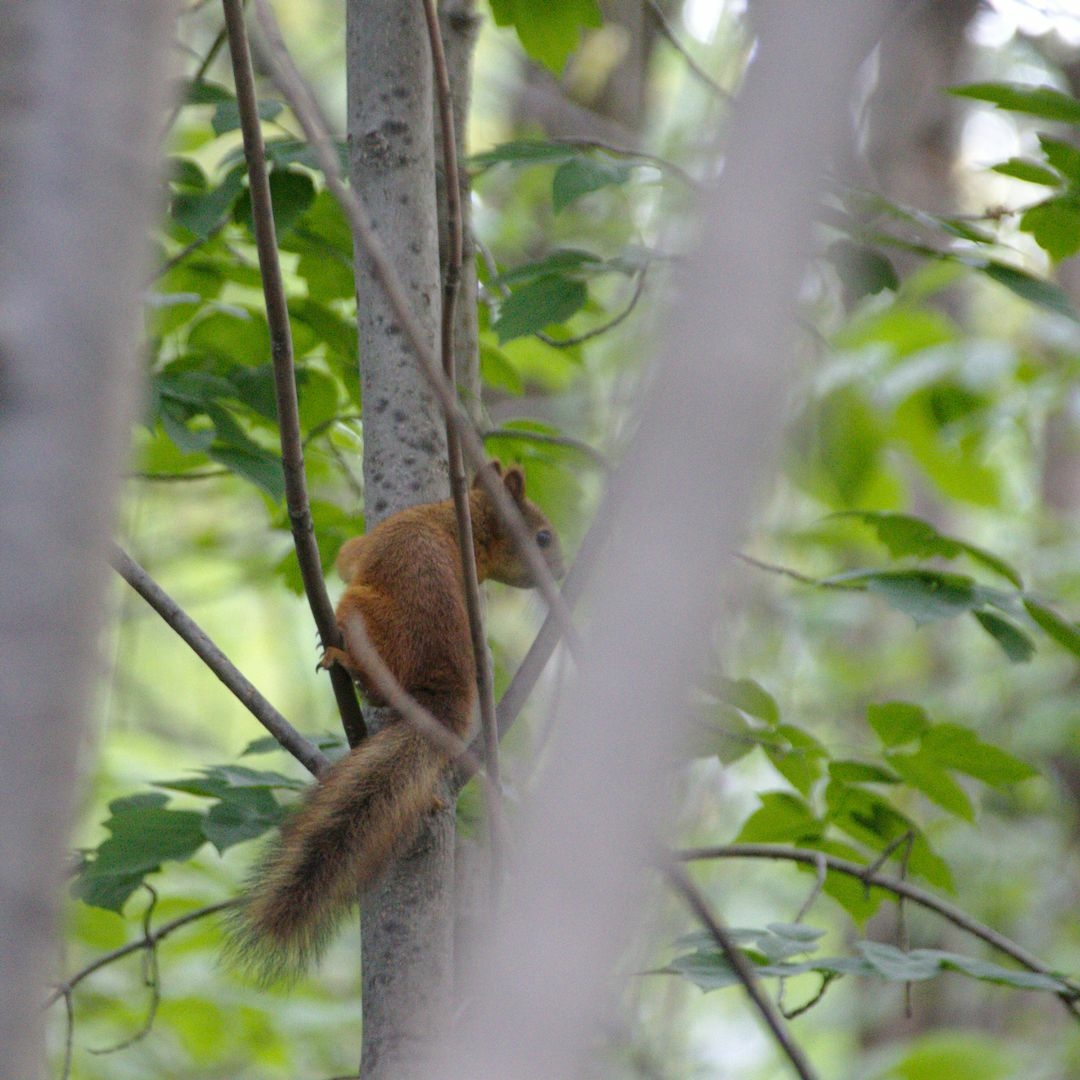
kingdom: Animalia
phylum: Chordata
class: Mammalia
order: Rodentia
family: Sciuridae
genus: Sciurus
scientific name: Sciurus vulgaris
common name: Eurasian red squirrel
